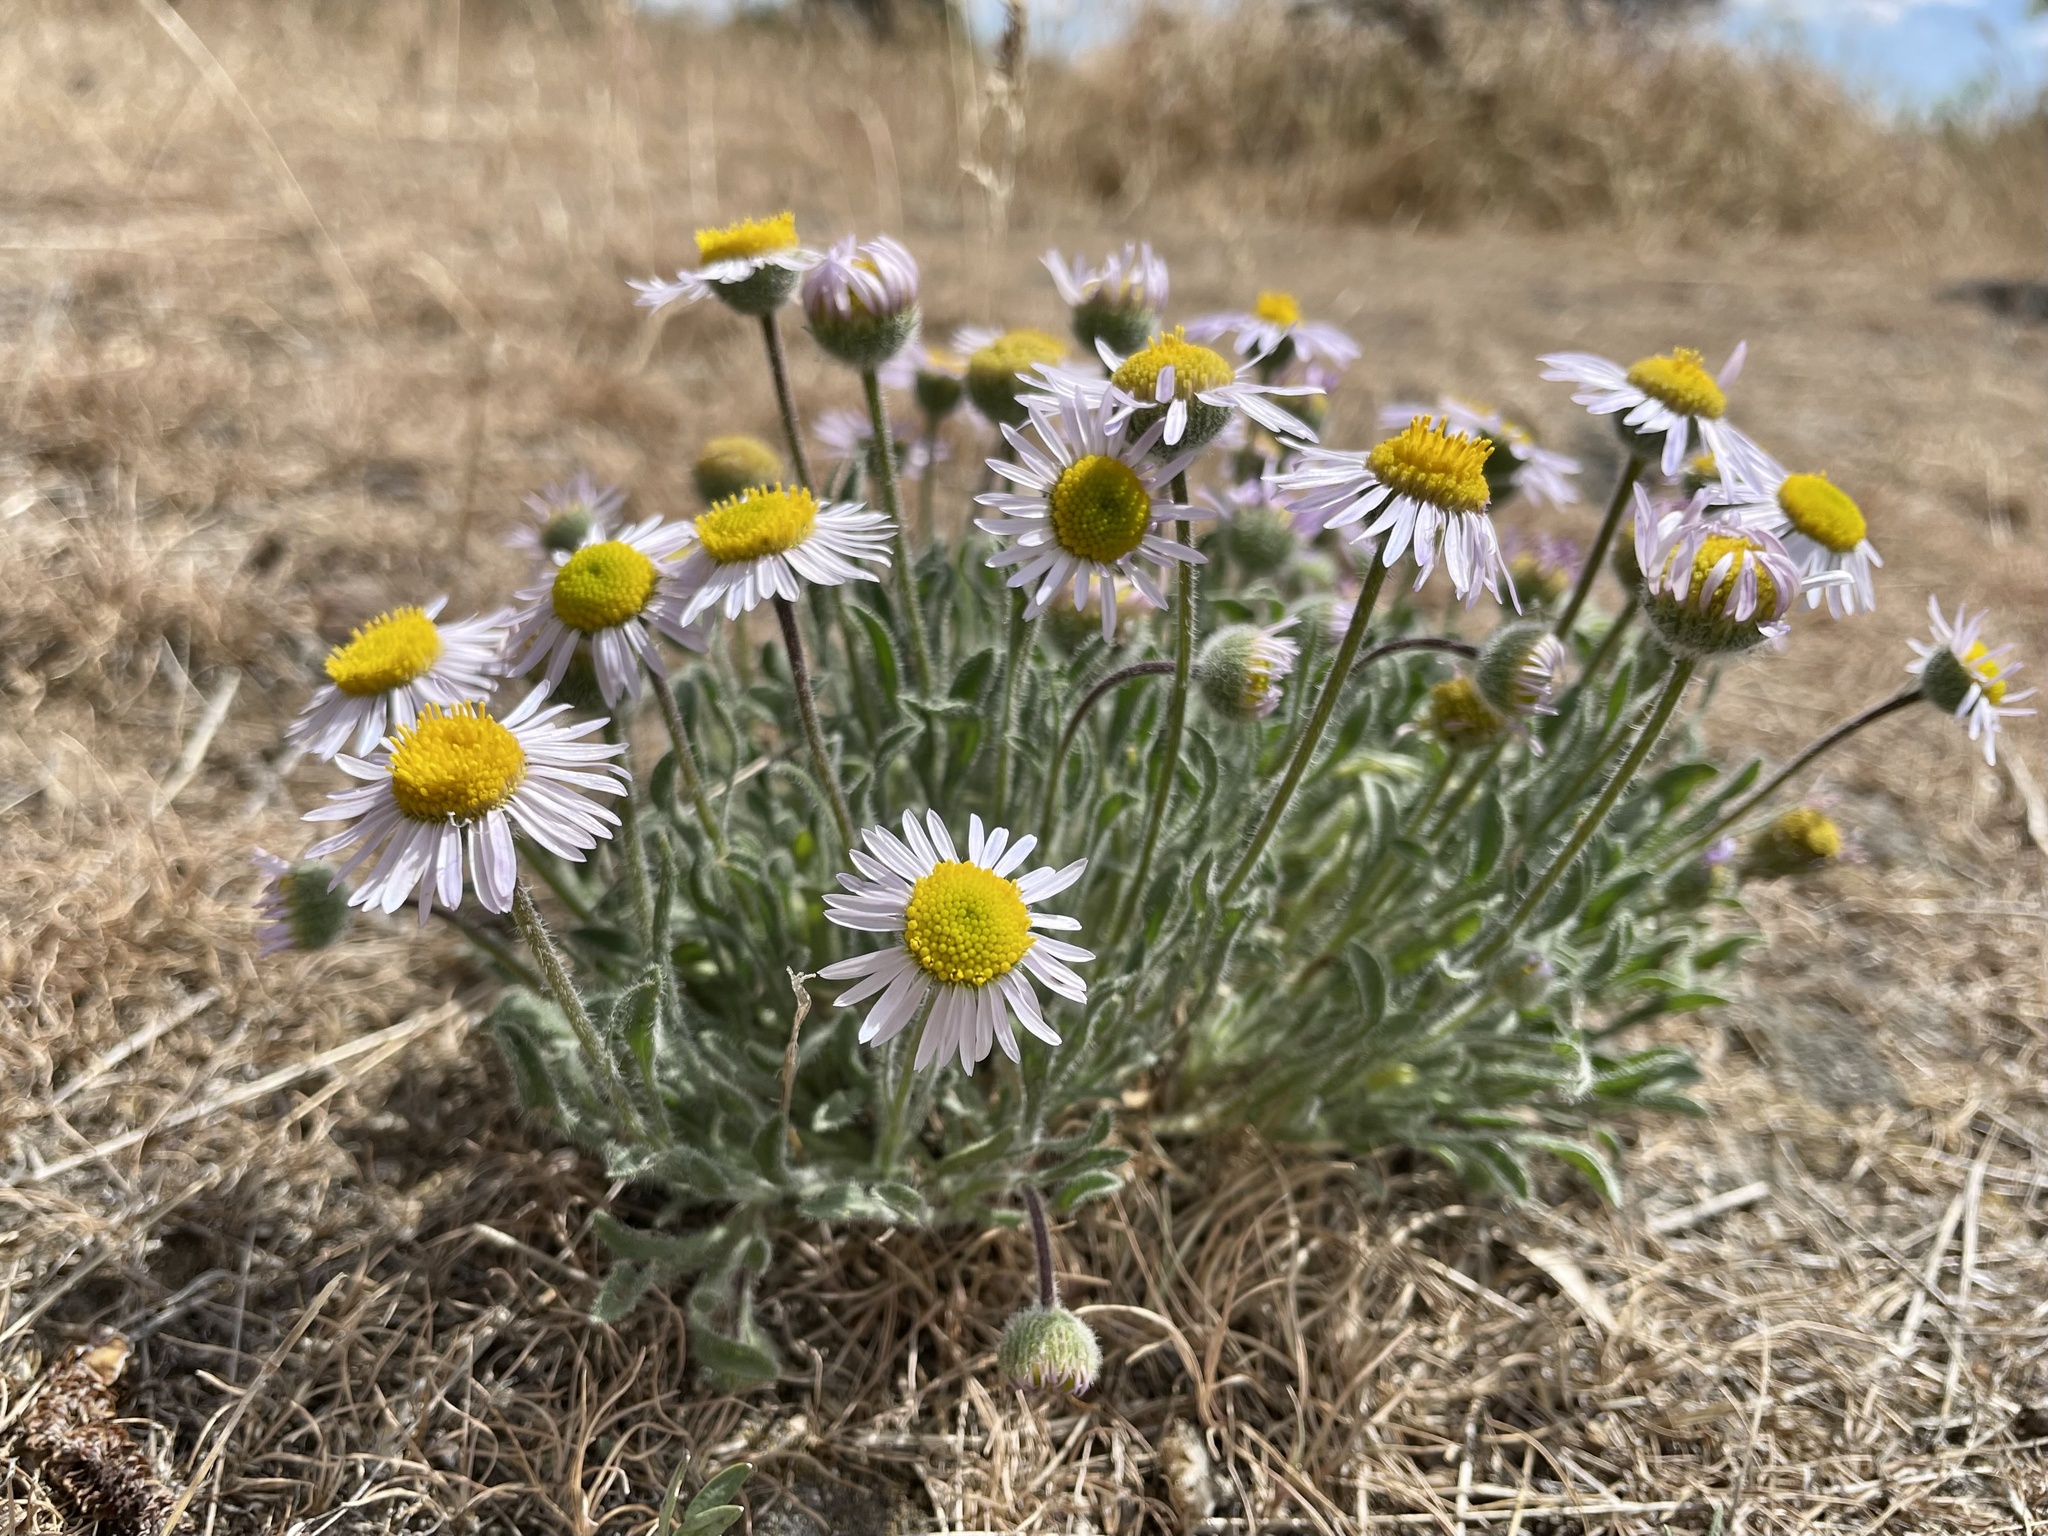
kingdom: Plantae
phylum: Tracheophyta
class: Magnoliopsida
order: Asterales
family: Asteraceae
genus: Erigeron
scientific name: Erigeron poliospermus
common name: Cushion fleabane
